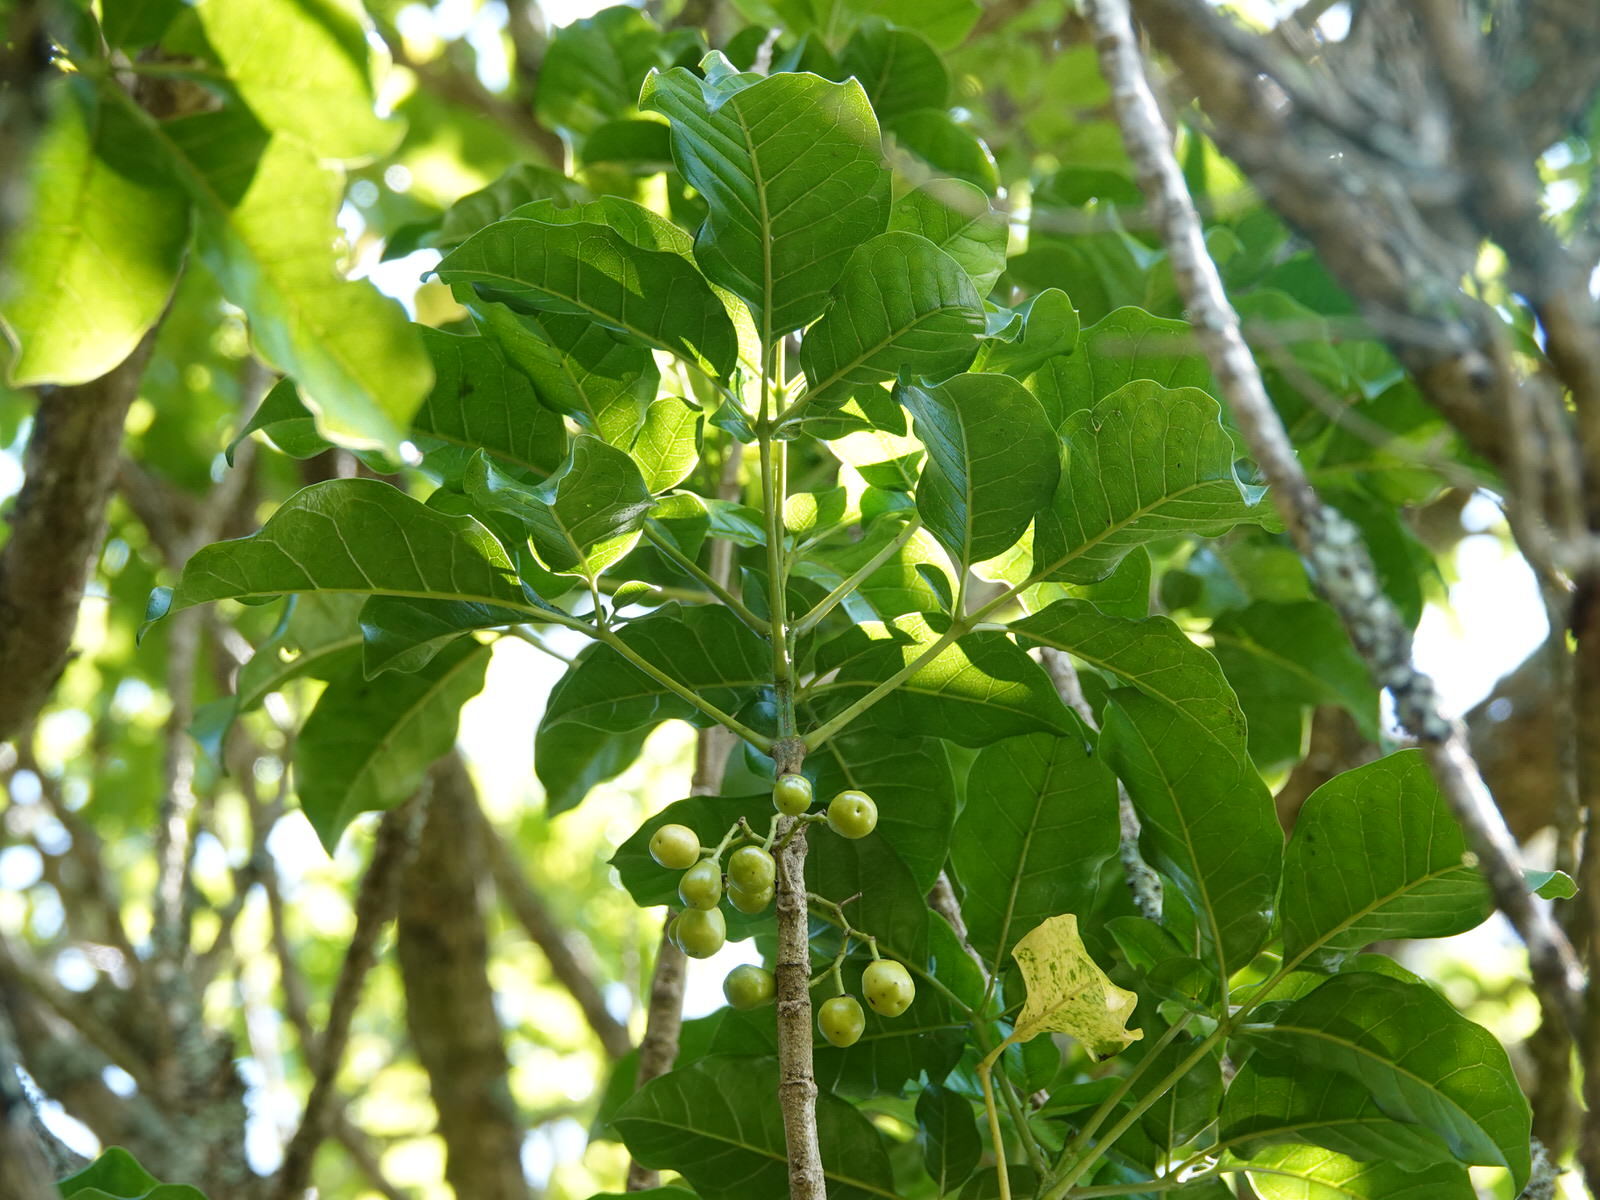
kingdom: Plantae
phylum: Tracheophyta
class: Magnoliopsida
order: Lamiales
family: Lamiaceae
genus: Vitex
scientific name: Vitex lucens
